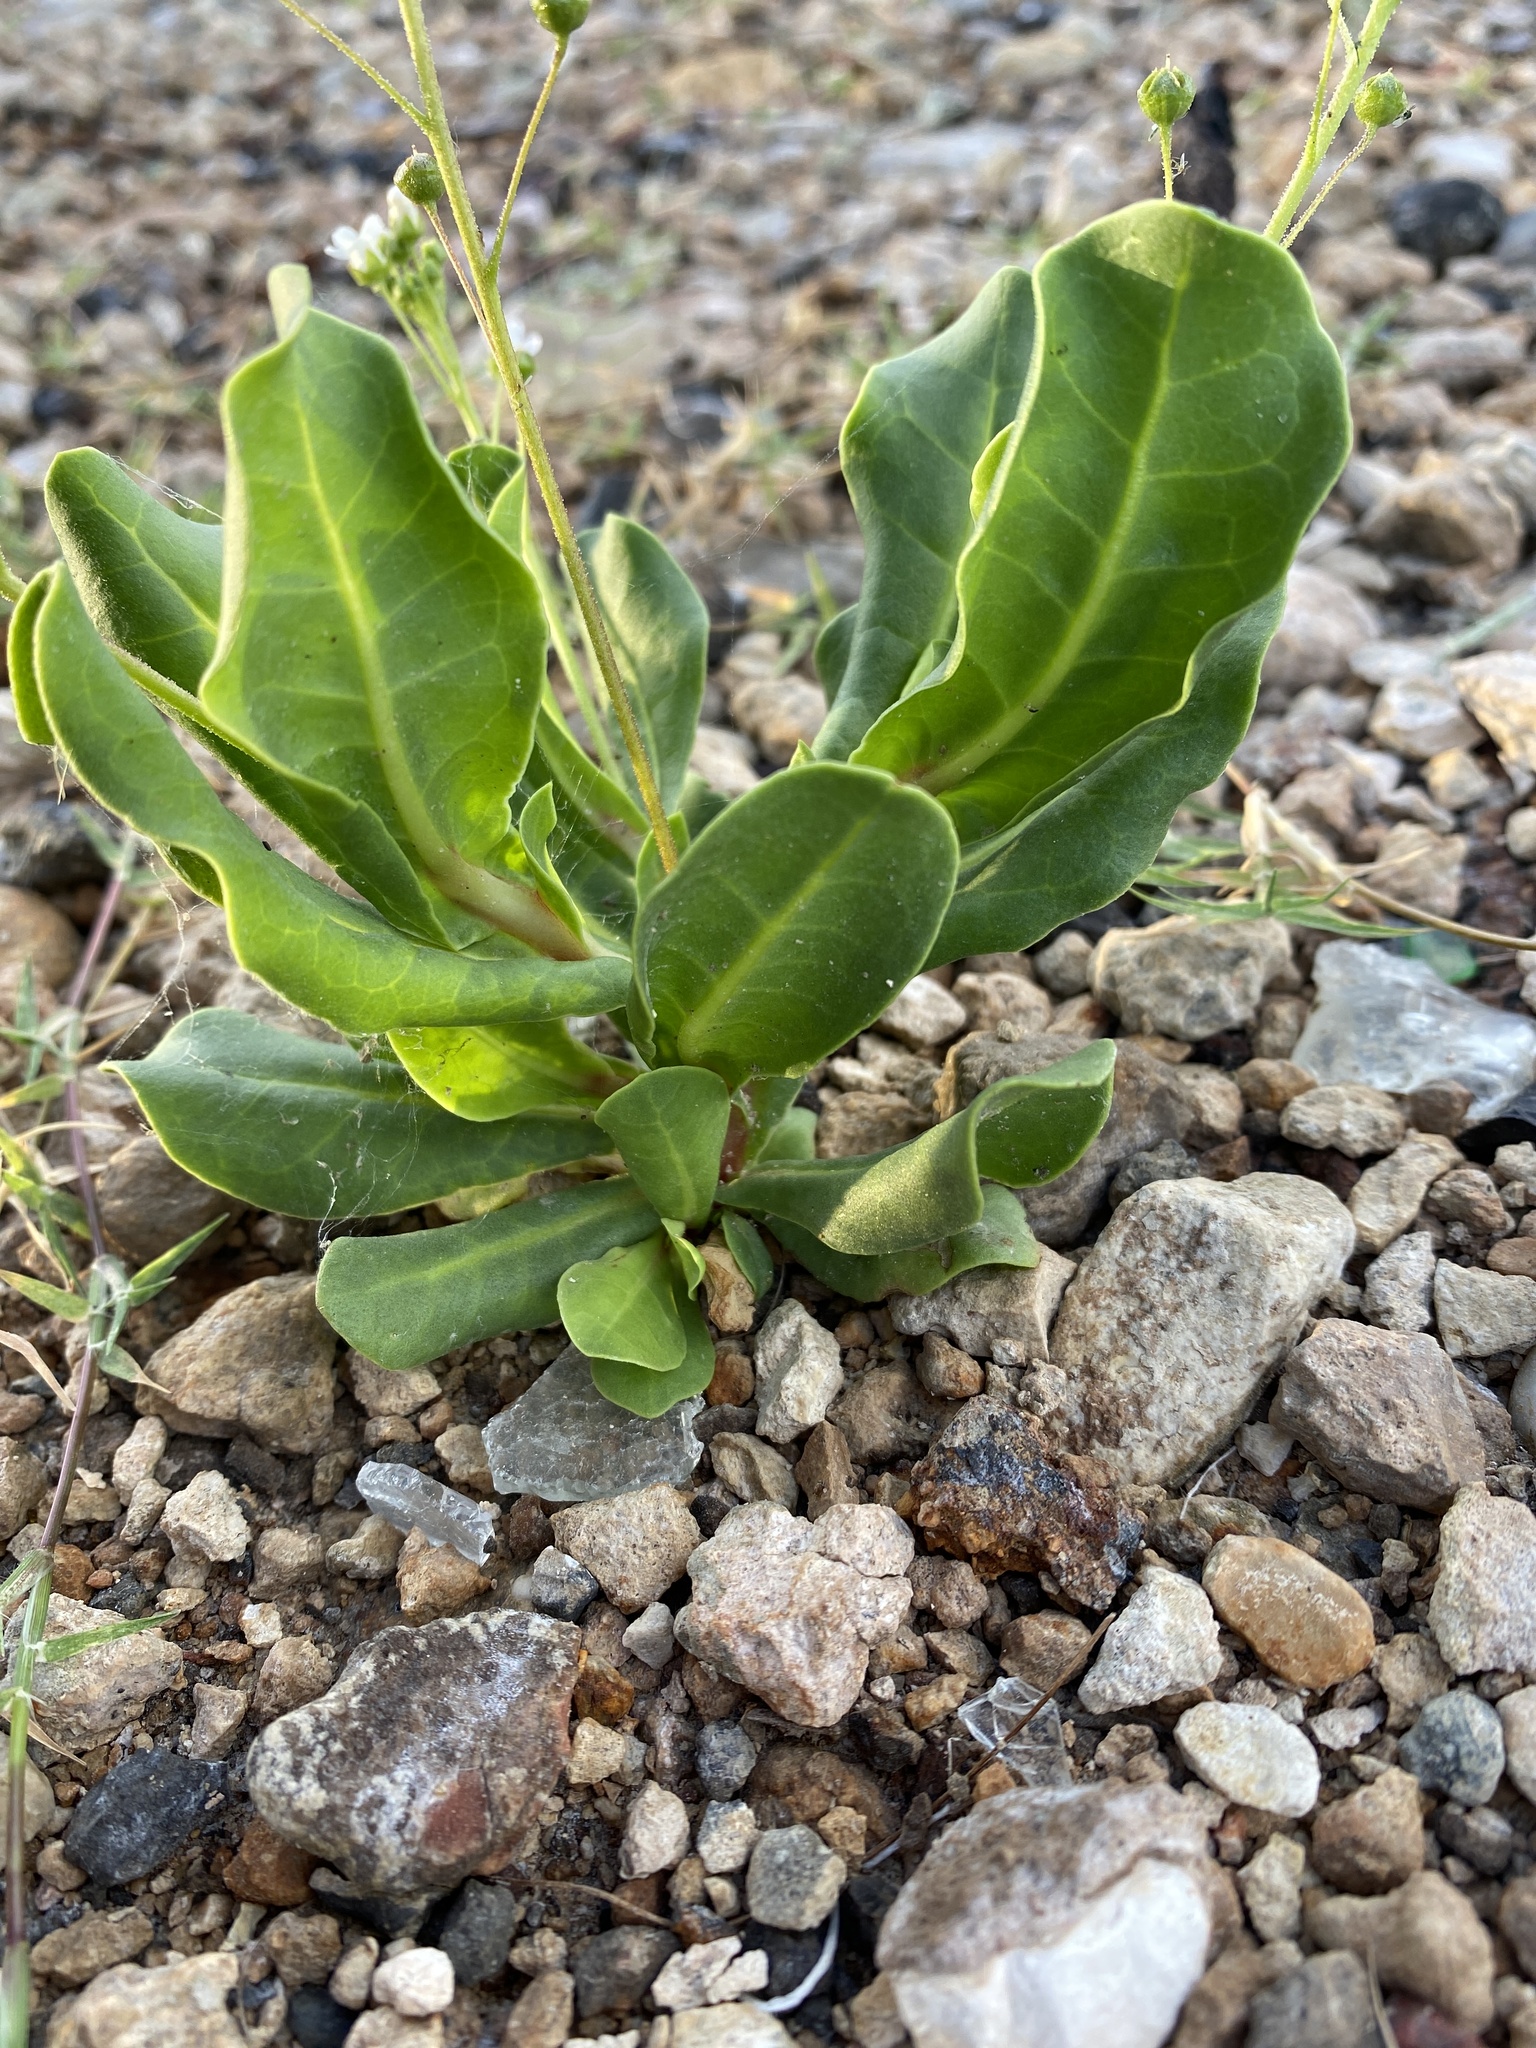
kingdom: Plantae
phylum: Tracheophyta
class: Magnoliopsida
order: Ericales
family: Primulaceae
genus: Samolus
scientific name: Samolus ebracteatus
